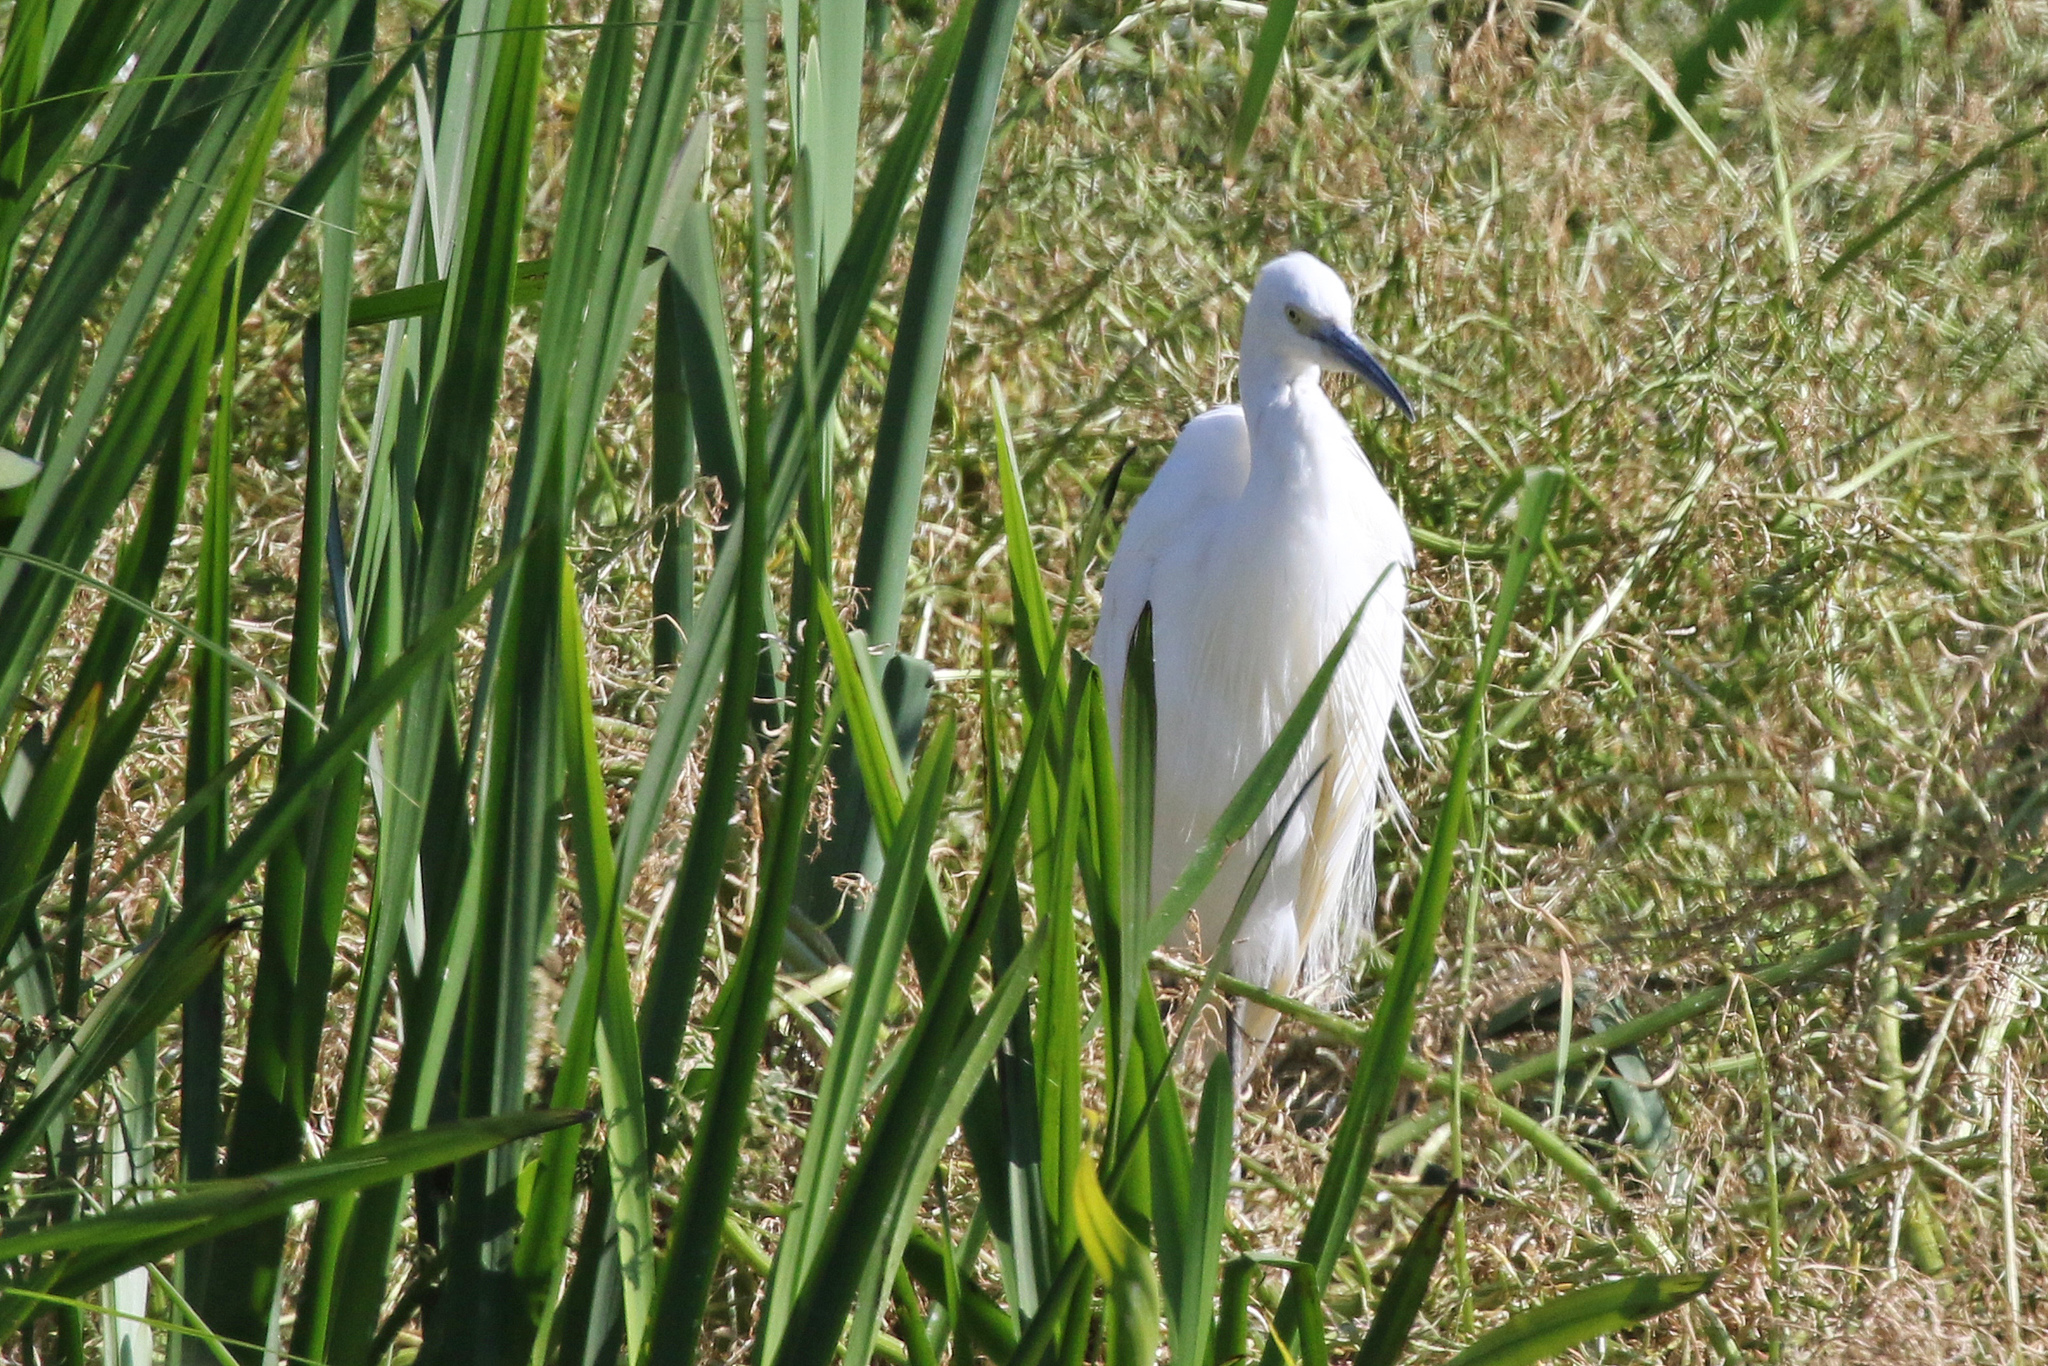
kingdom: Animalia
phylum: Chordata
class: Aves
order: Pelecaniformes
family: Ardeidae
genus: Egretta
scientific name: Egretta garzetta
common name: Little egret
